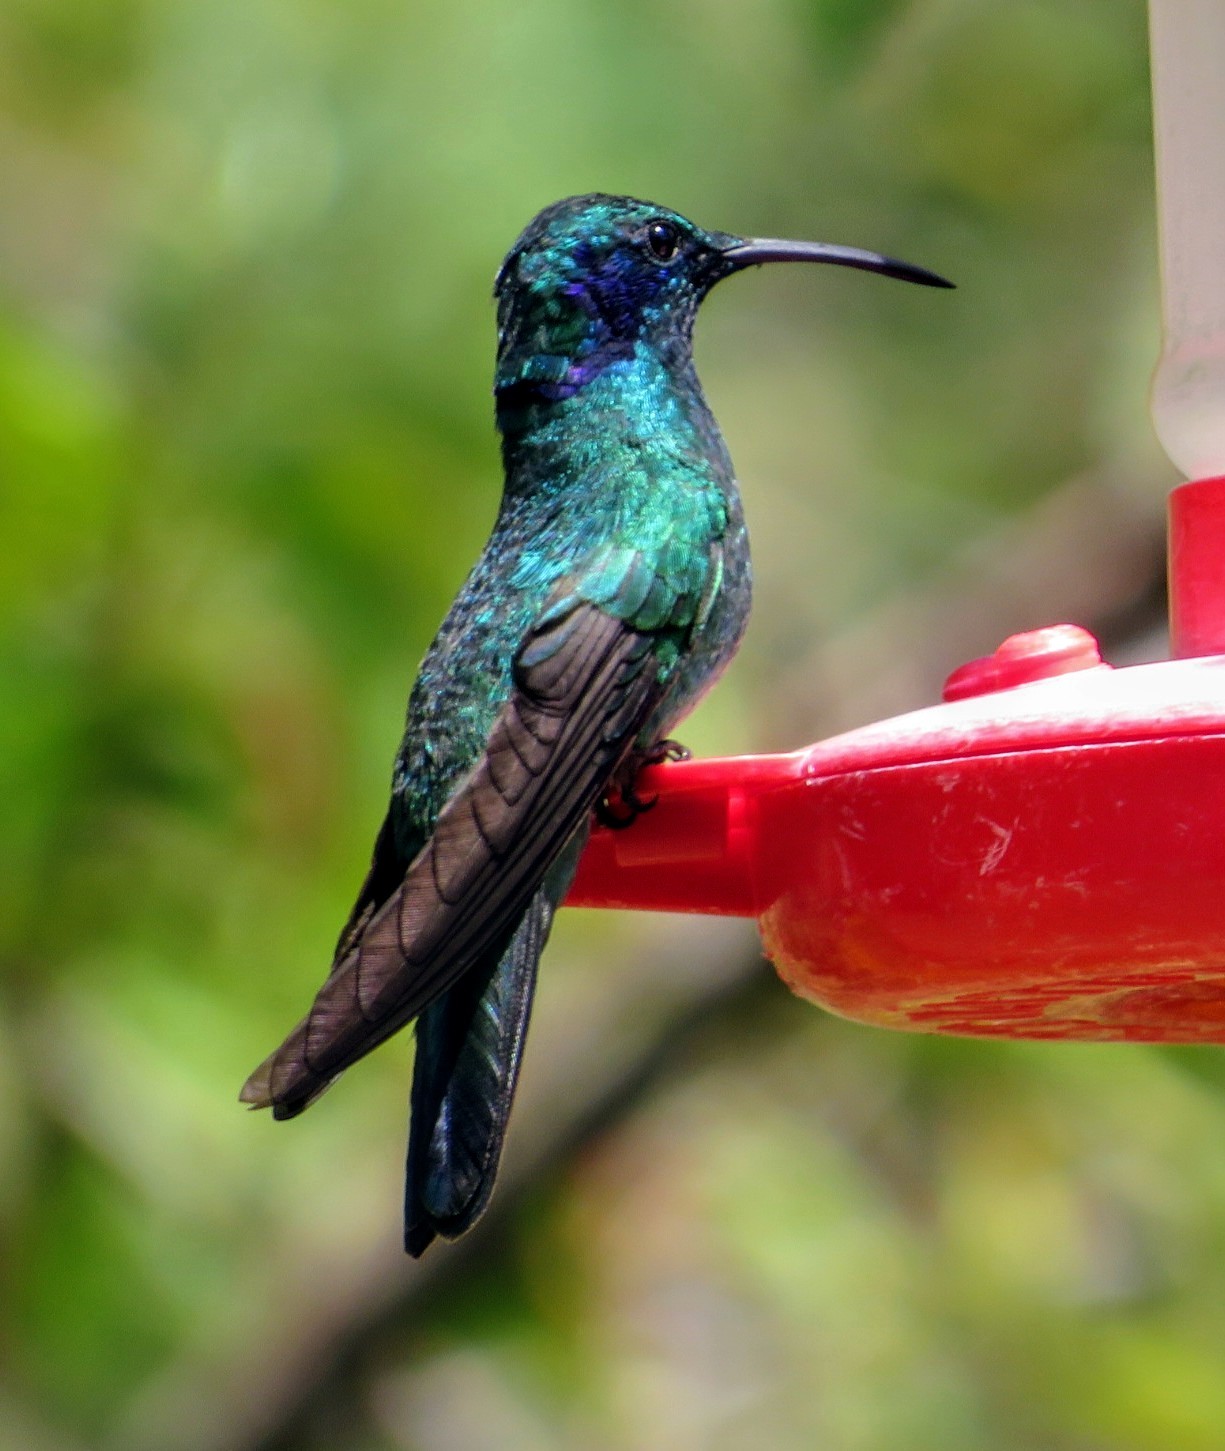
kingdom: Animalia
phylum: Chordata
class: Aves
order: Apodiformes
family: Trochilidae
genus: Colibri
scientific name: Colibri cyanotus
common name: Lesser violetear
